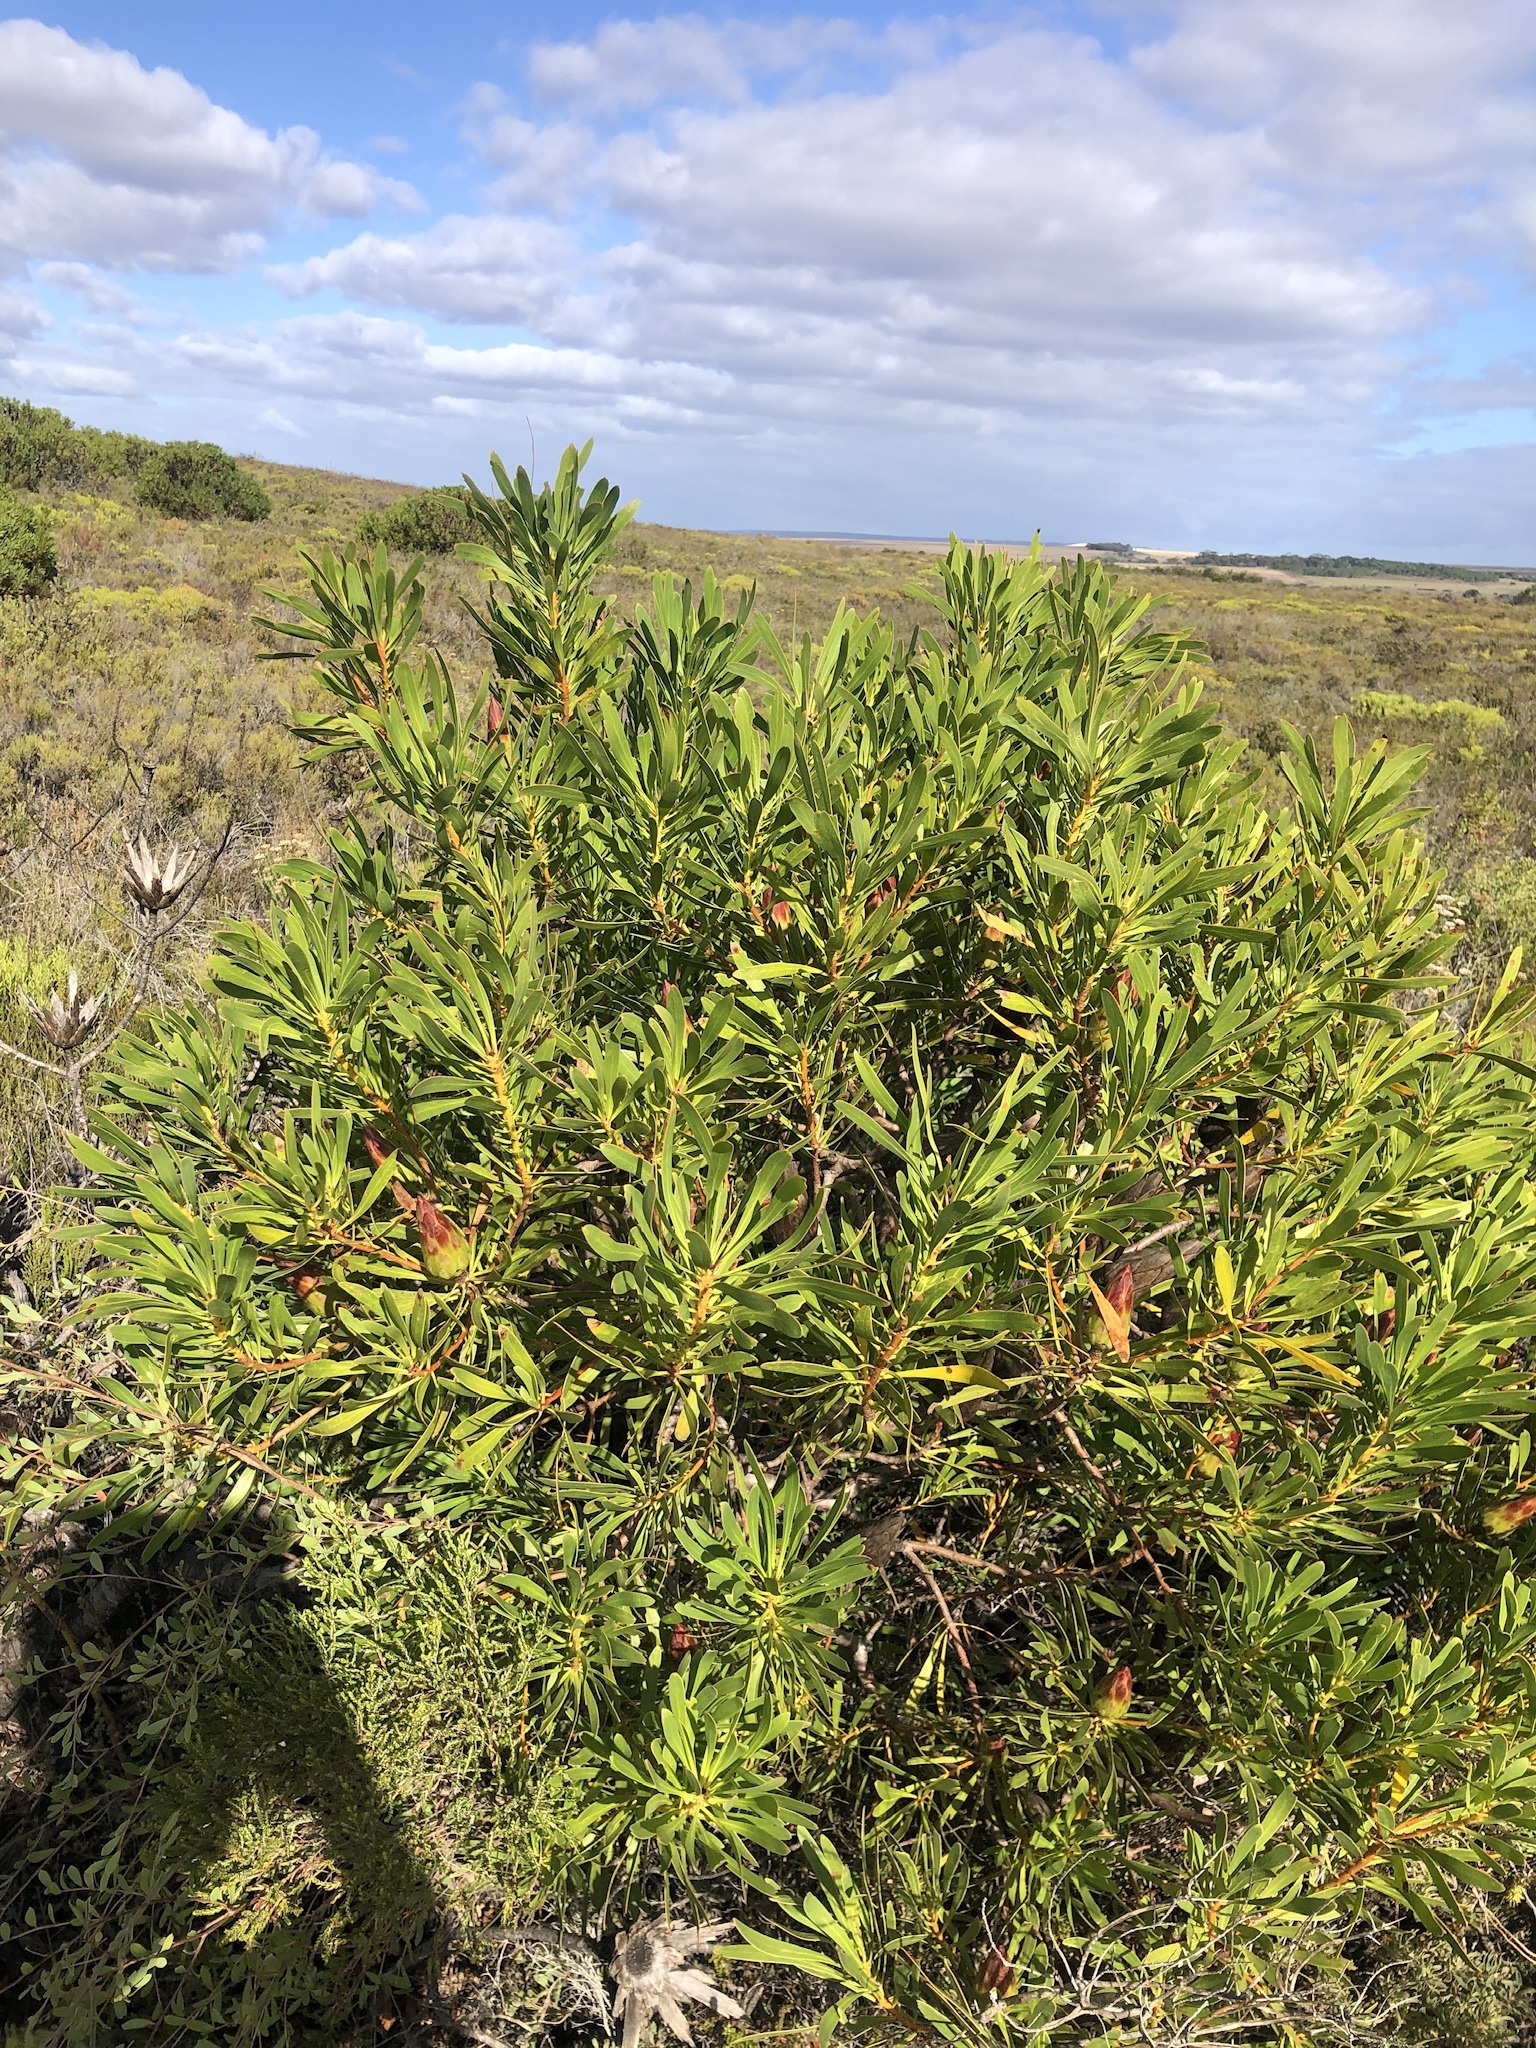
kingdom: Plantae
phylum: Tracheophyta
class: Magnoliopsida
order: Proteales
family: Proteaceae
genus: Protea
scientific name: Protea repens
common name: Sugarbush
